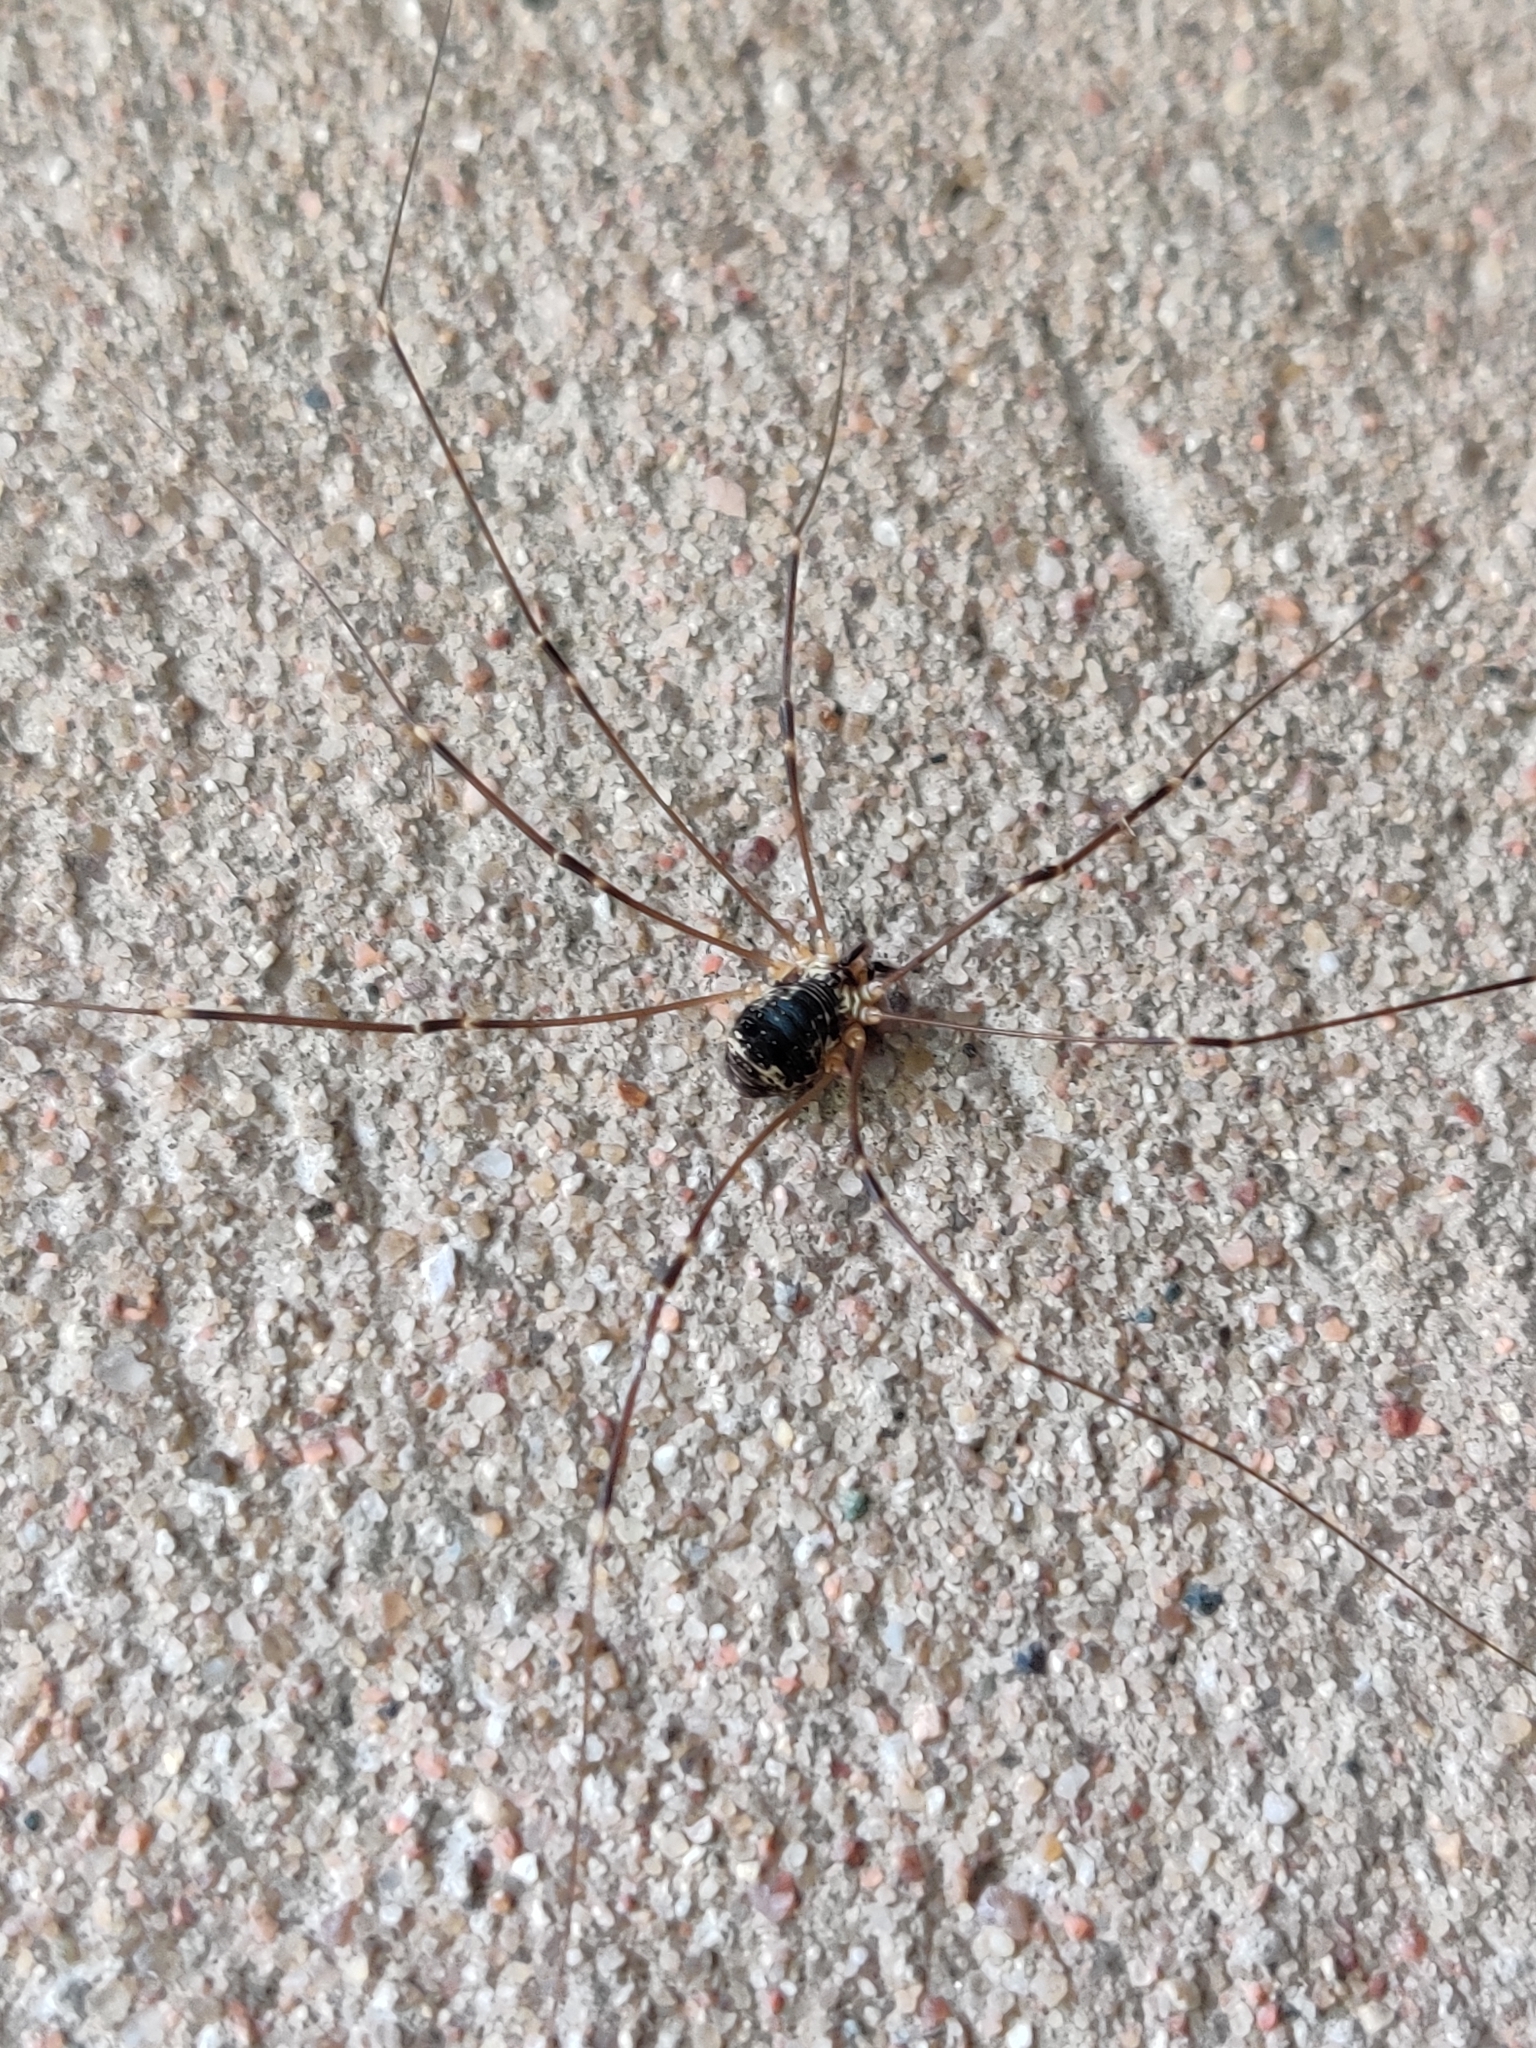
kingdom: Animalia
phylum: Arthropoda
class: Arachnida
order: Opiliones
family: Sclerosomatidae
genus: Leiobunum
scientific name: Leiobunum gracile
